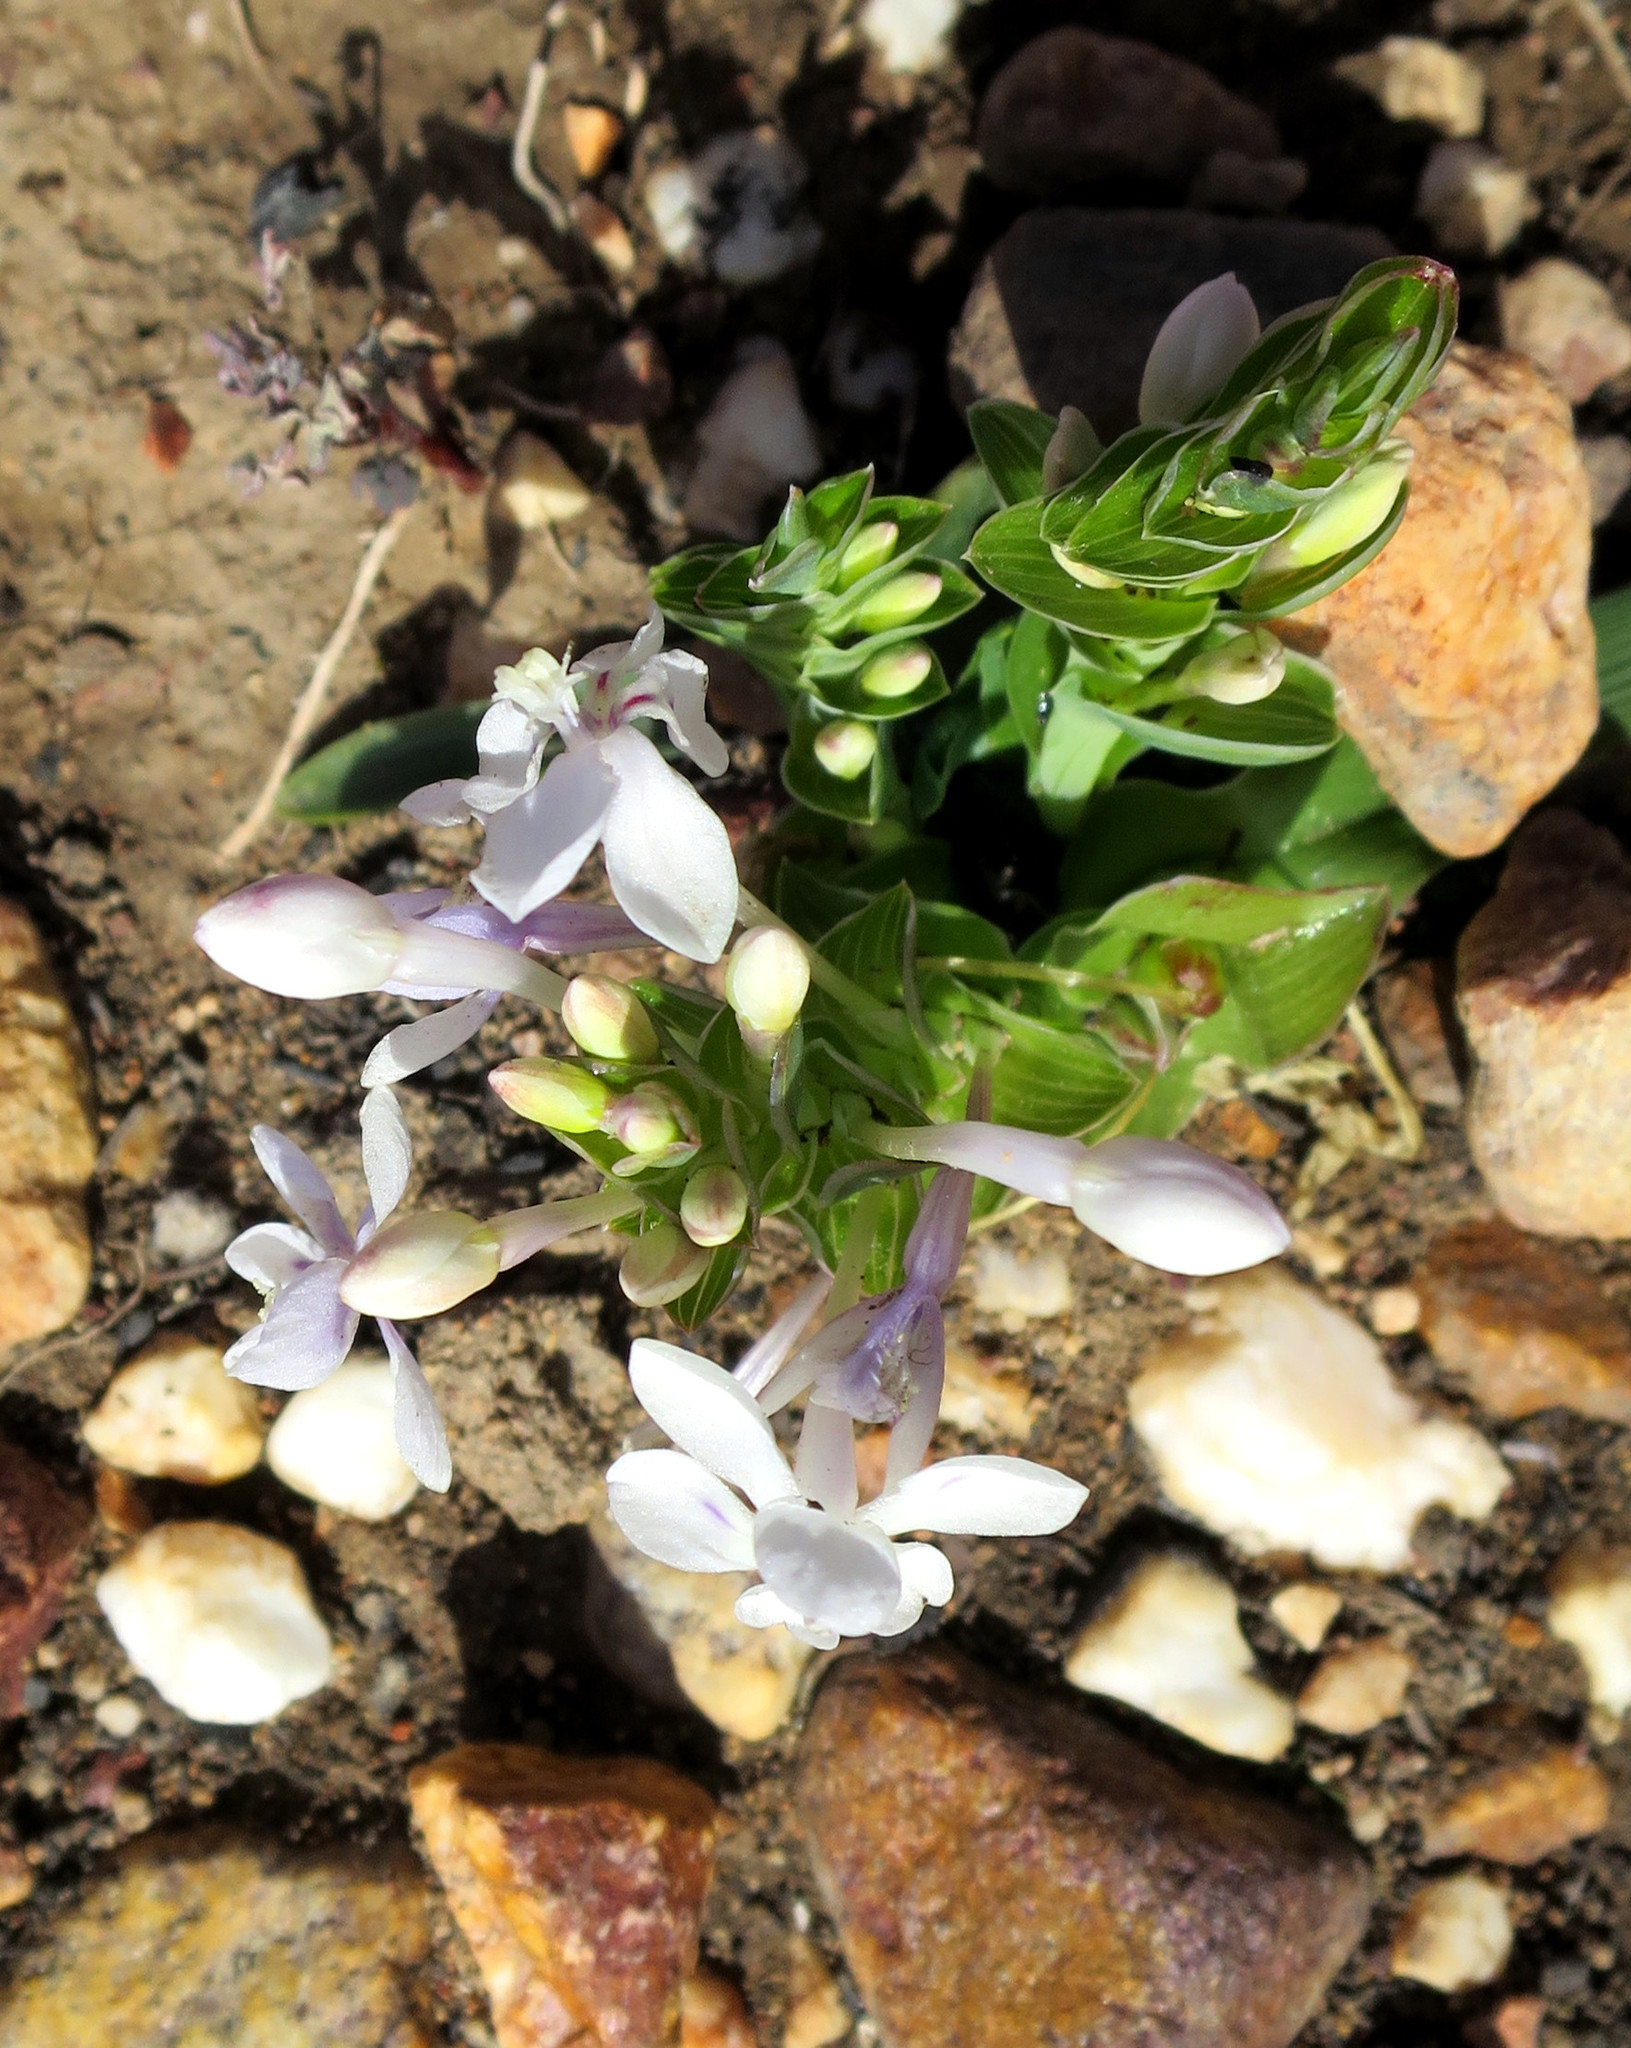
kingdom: Plantae
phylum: Tracheophyta
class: Liliopsida
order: Asparagales
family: Iridaceae
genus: Lapeirousia
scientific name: Lapeirousia pyramidalis
